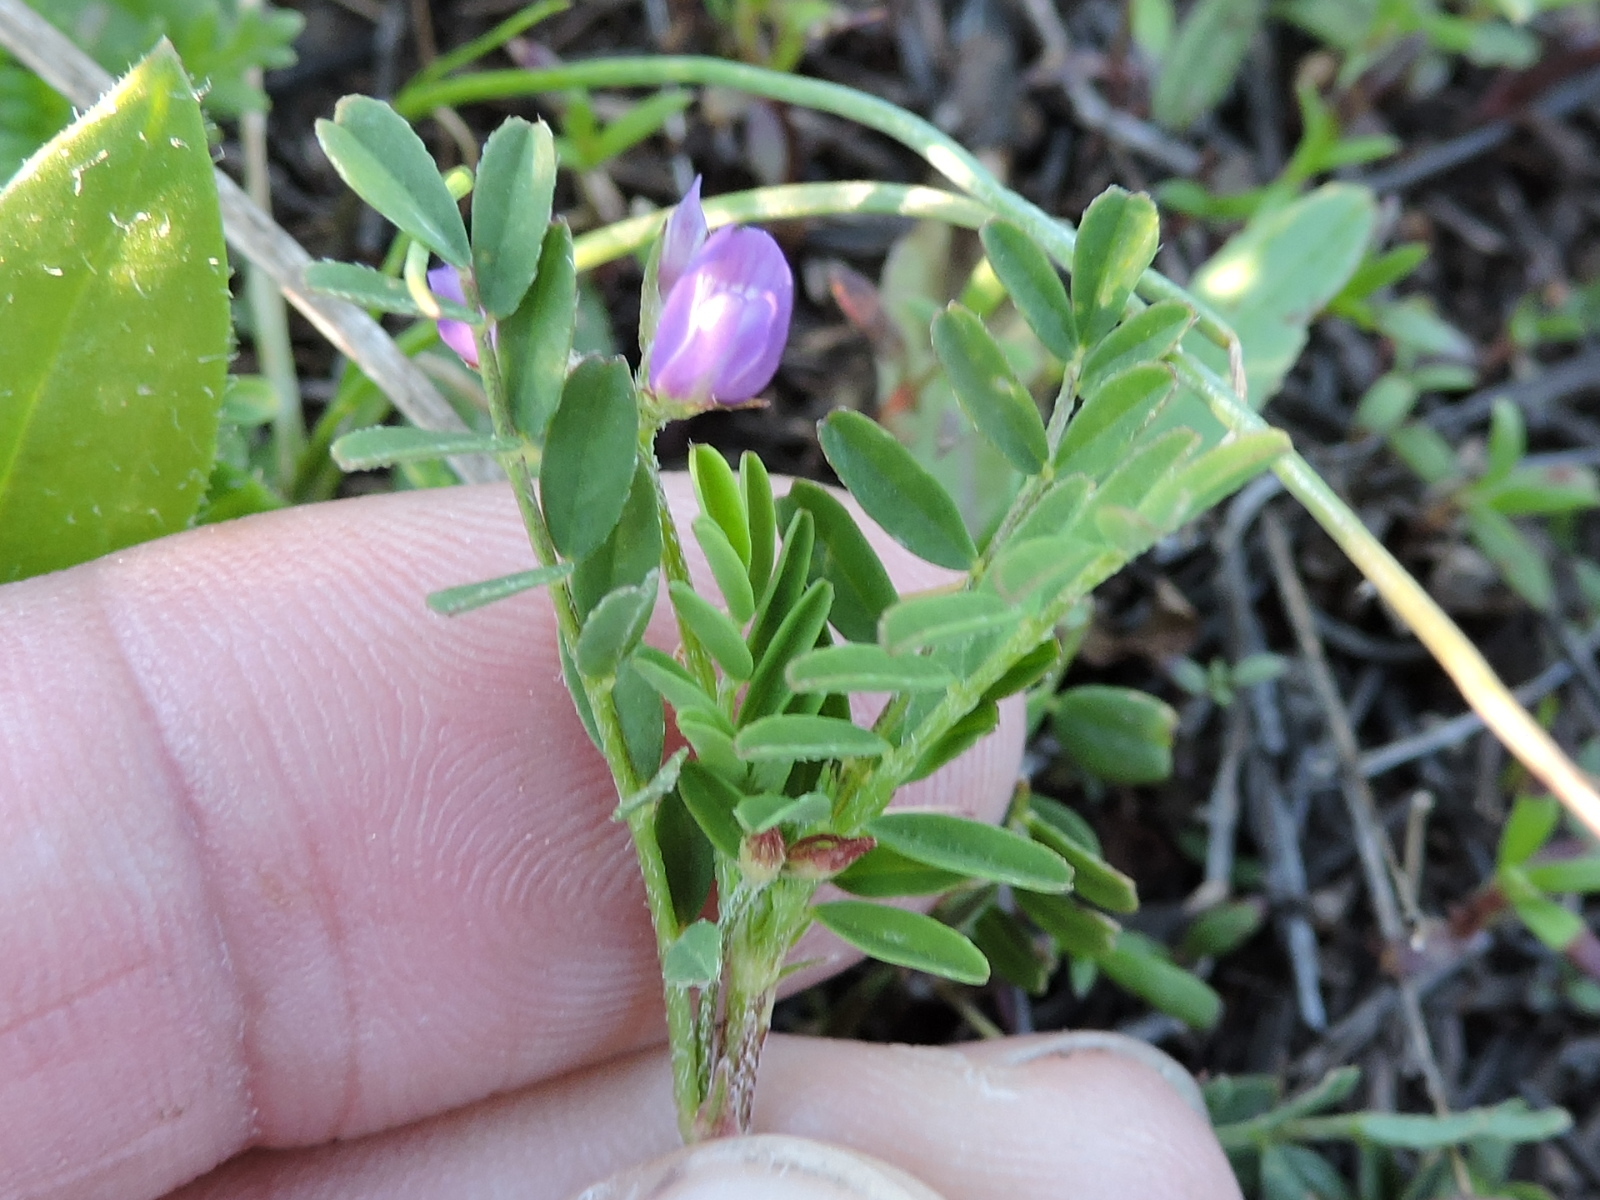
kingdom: Plantae
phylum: Tracheophyta
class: Magnoliopsida
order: Fabales
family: Fabaceae
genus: Astragalus
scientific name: Astragalus leptocarpus
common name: Bodkin milk-vetch
